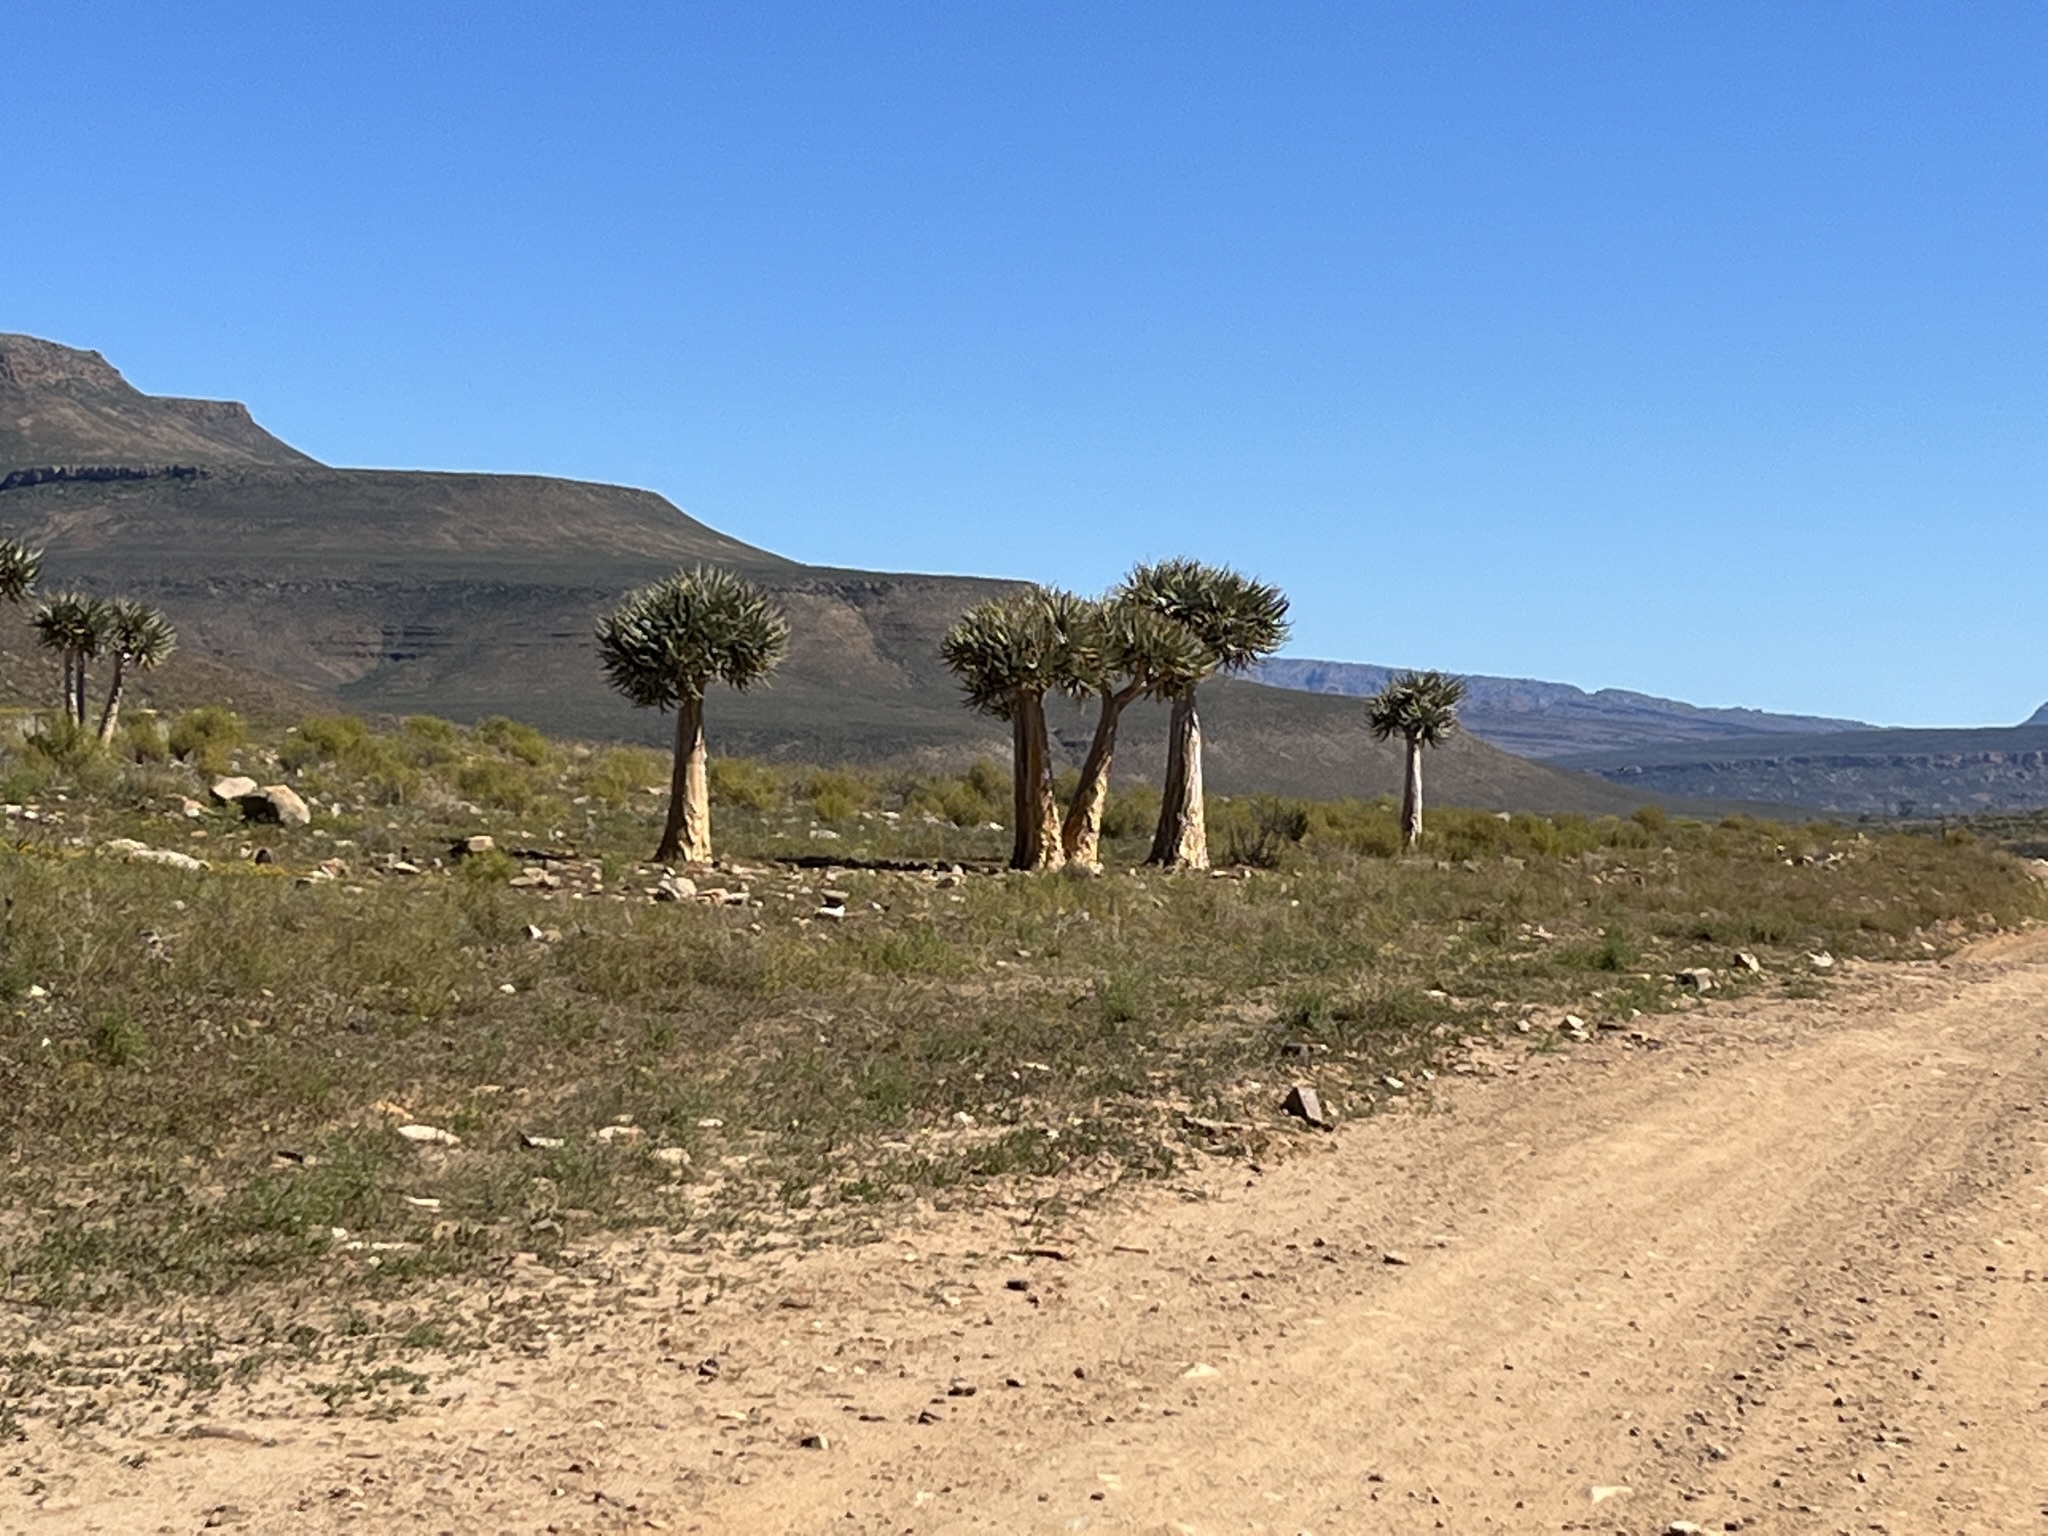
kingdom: Plantae
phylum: Tracheophyta
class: Liliopsida
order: Asparagales
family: Asphodelaceae
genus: Aloidendron
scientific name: Aloidendron dichotomum
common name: Quiver tree
